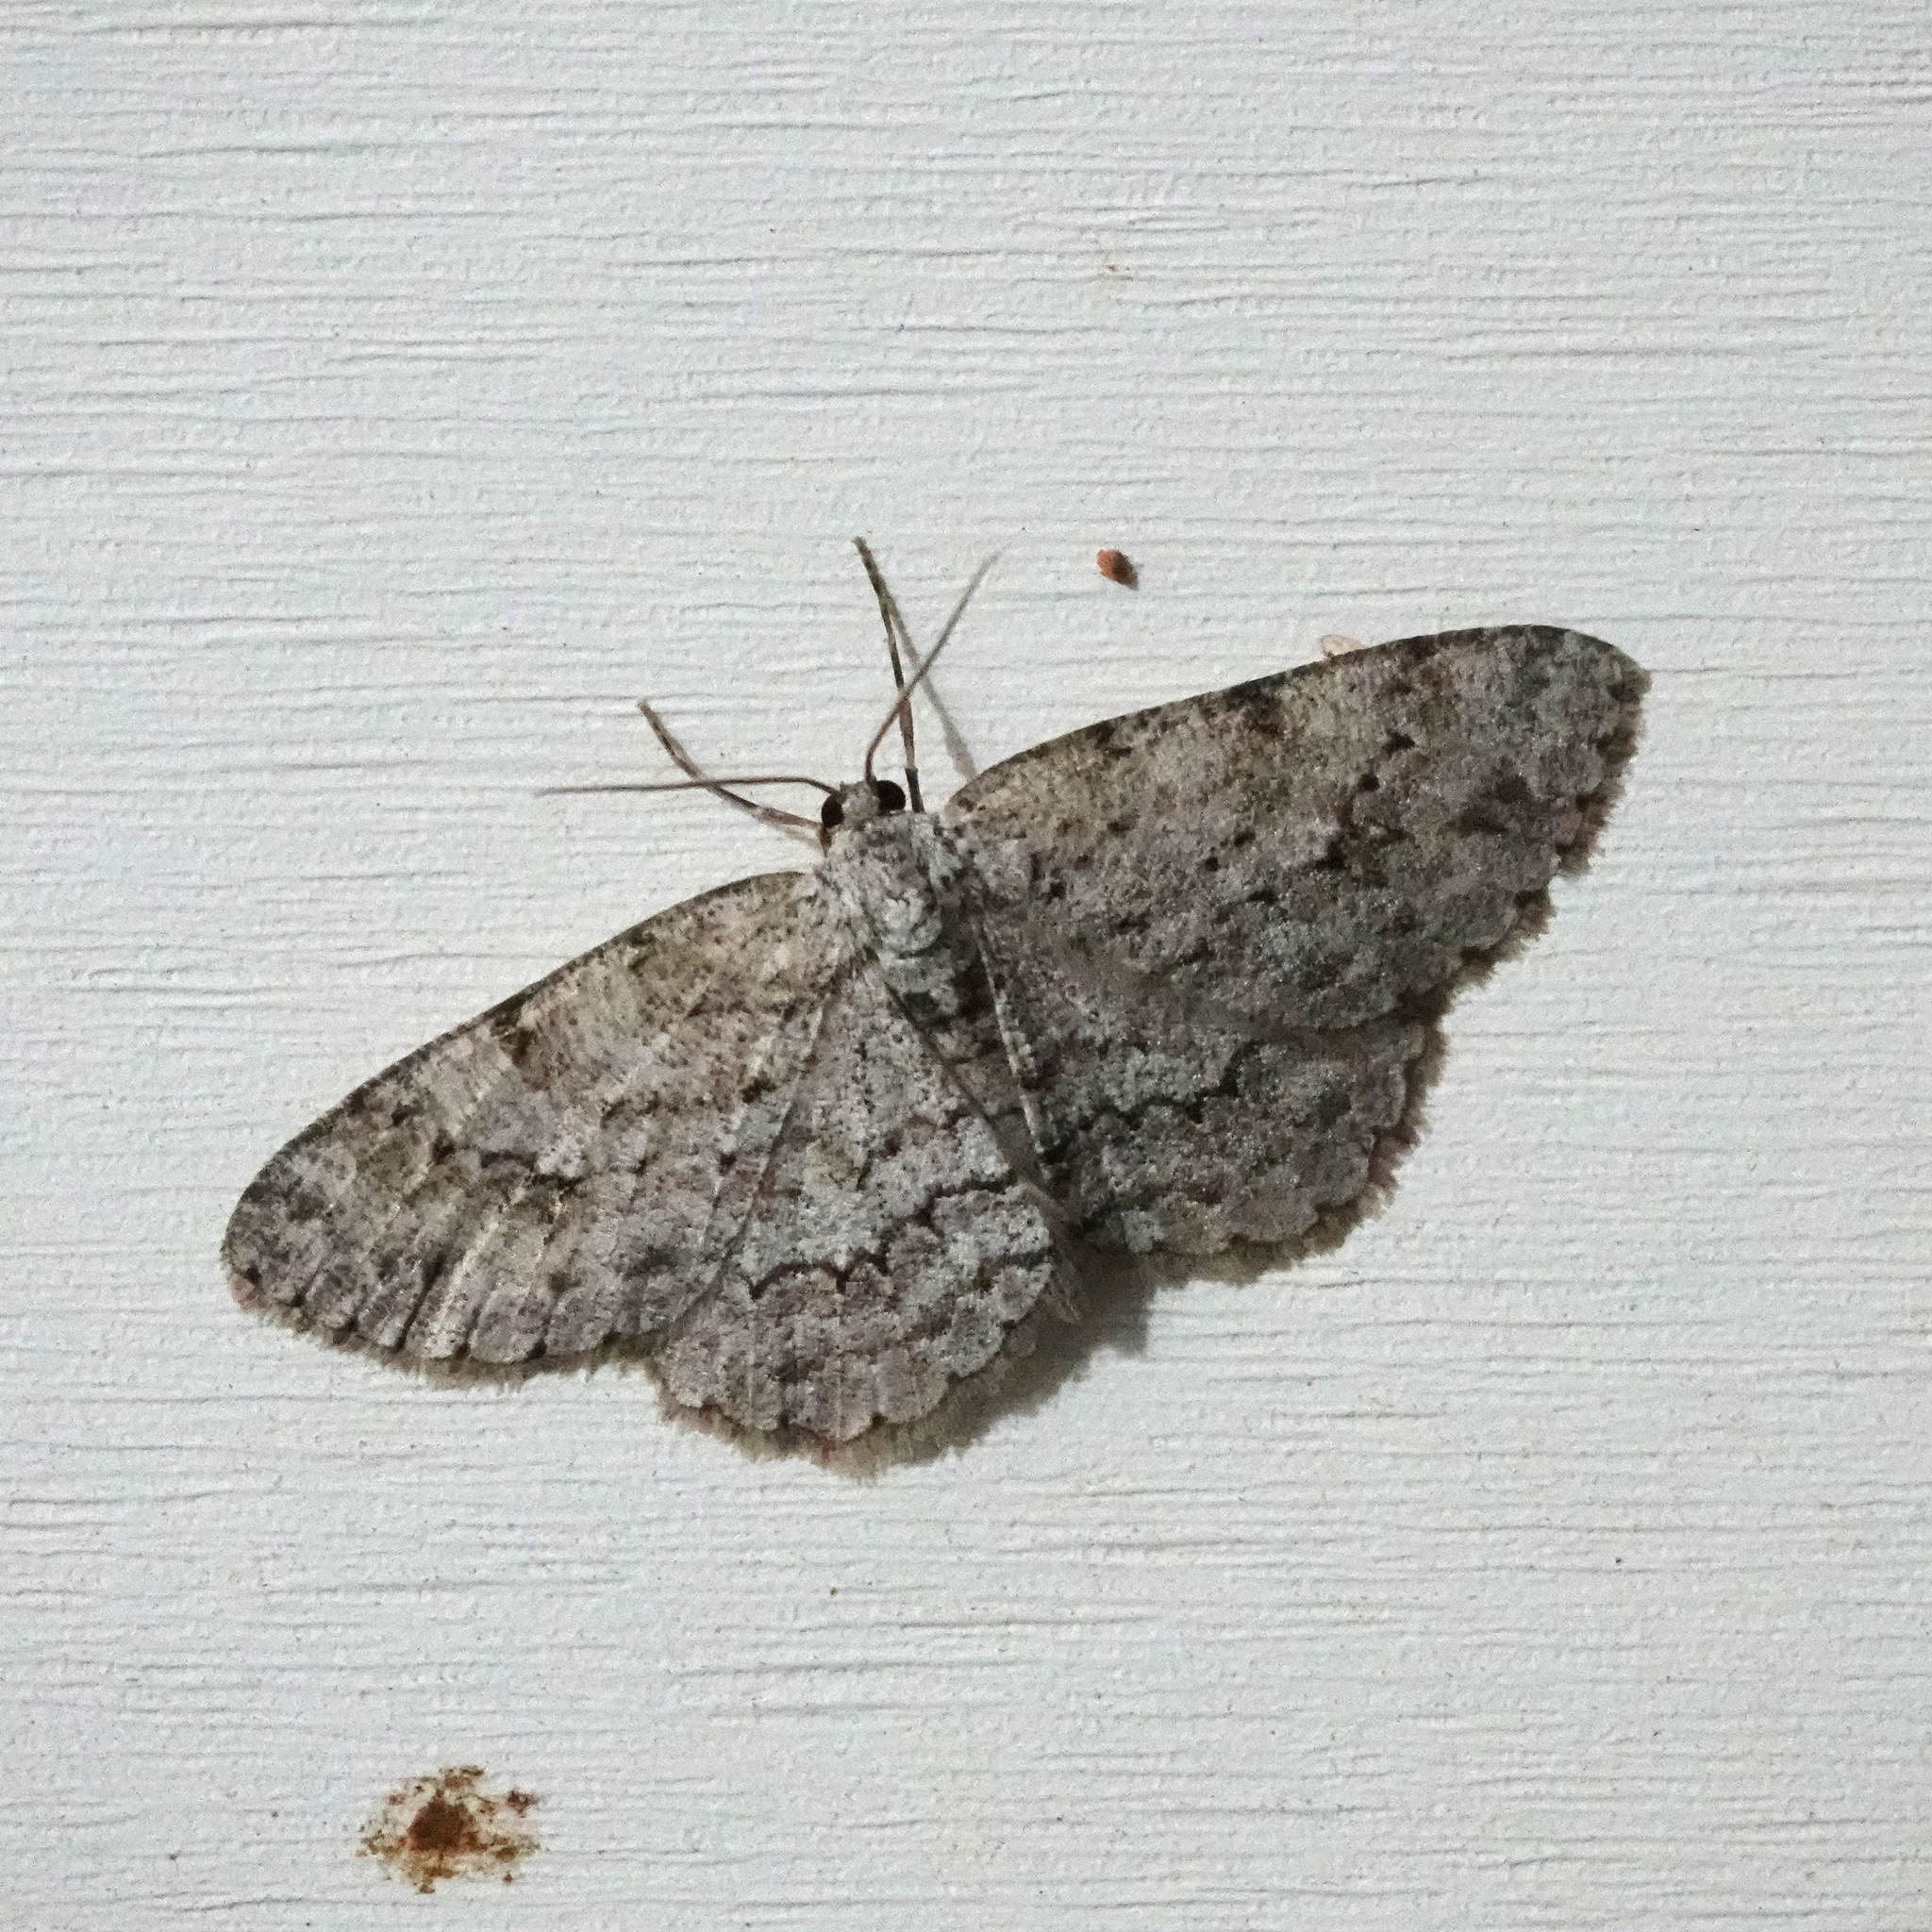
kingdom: Animalia
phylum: Arthropoda
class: Insecta
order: Lepidoptera
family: Geometridae
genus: Ectropis
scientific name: Ectropis crepuscularia
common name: Engrailed
